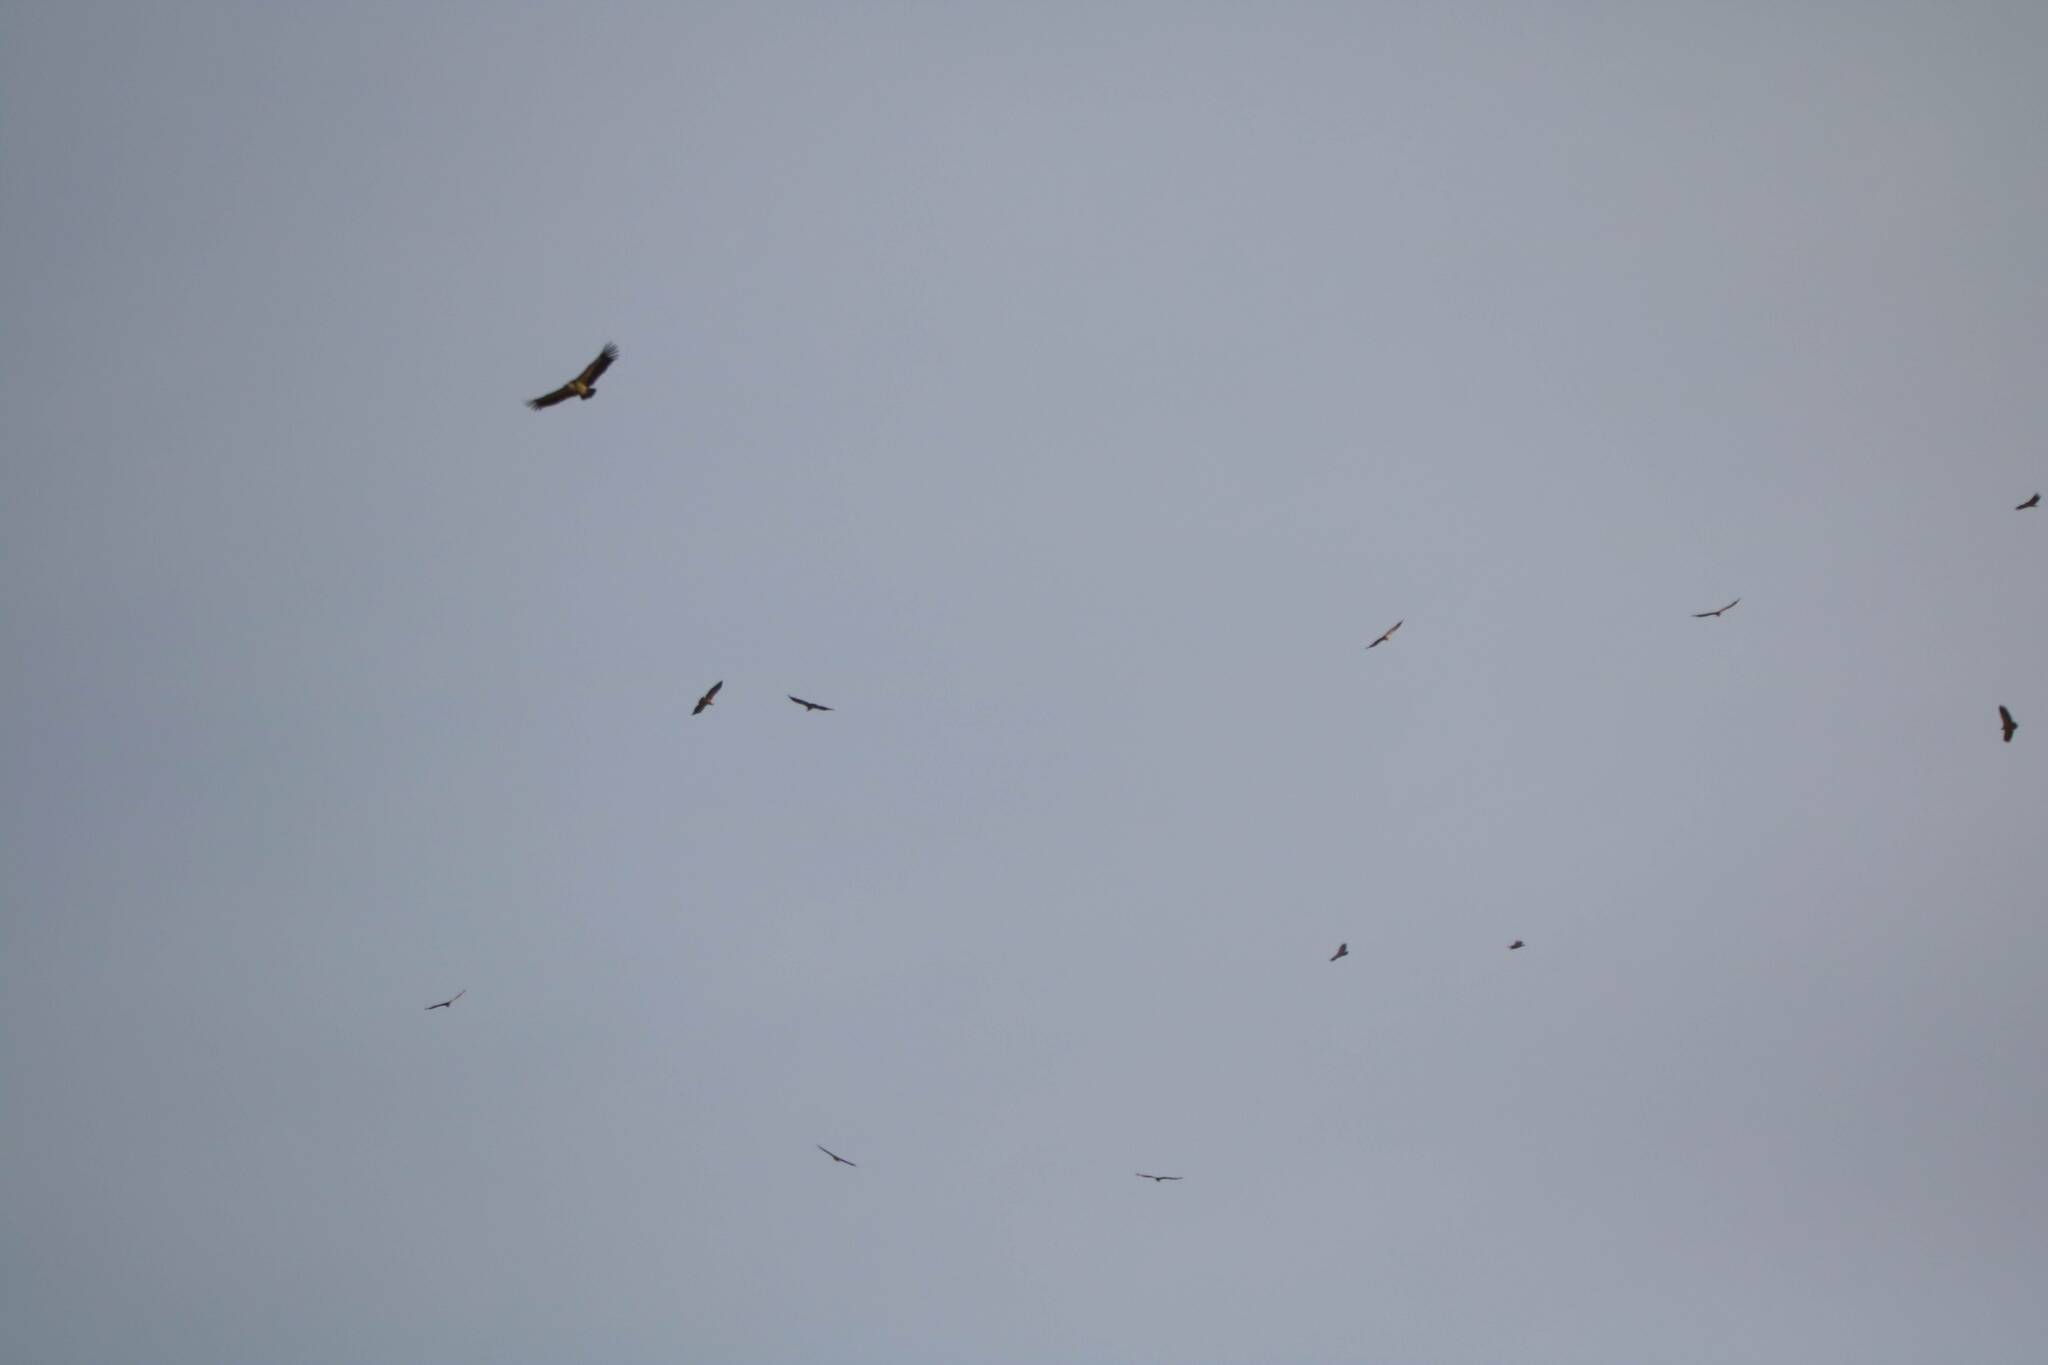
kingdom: Animalia
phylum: Chordata
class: Aves
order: Accipitriformes
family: Accipitridae
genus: Gyps
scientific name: Gyps fulvus
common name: Griffon vulture
